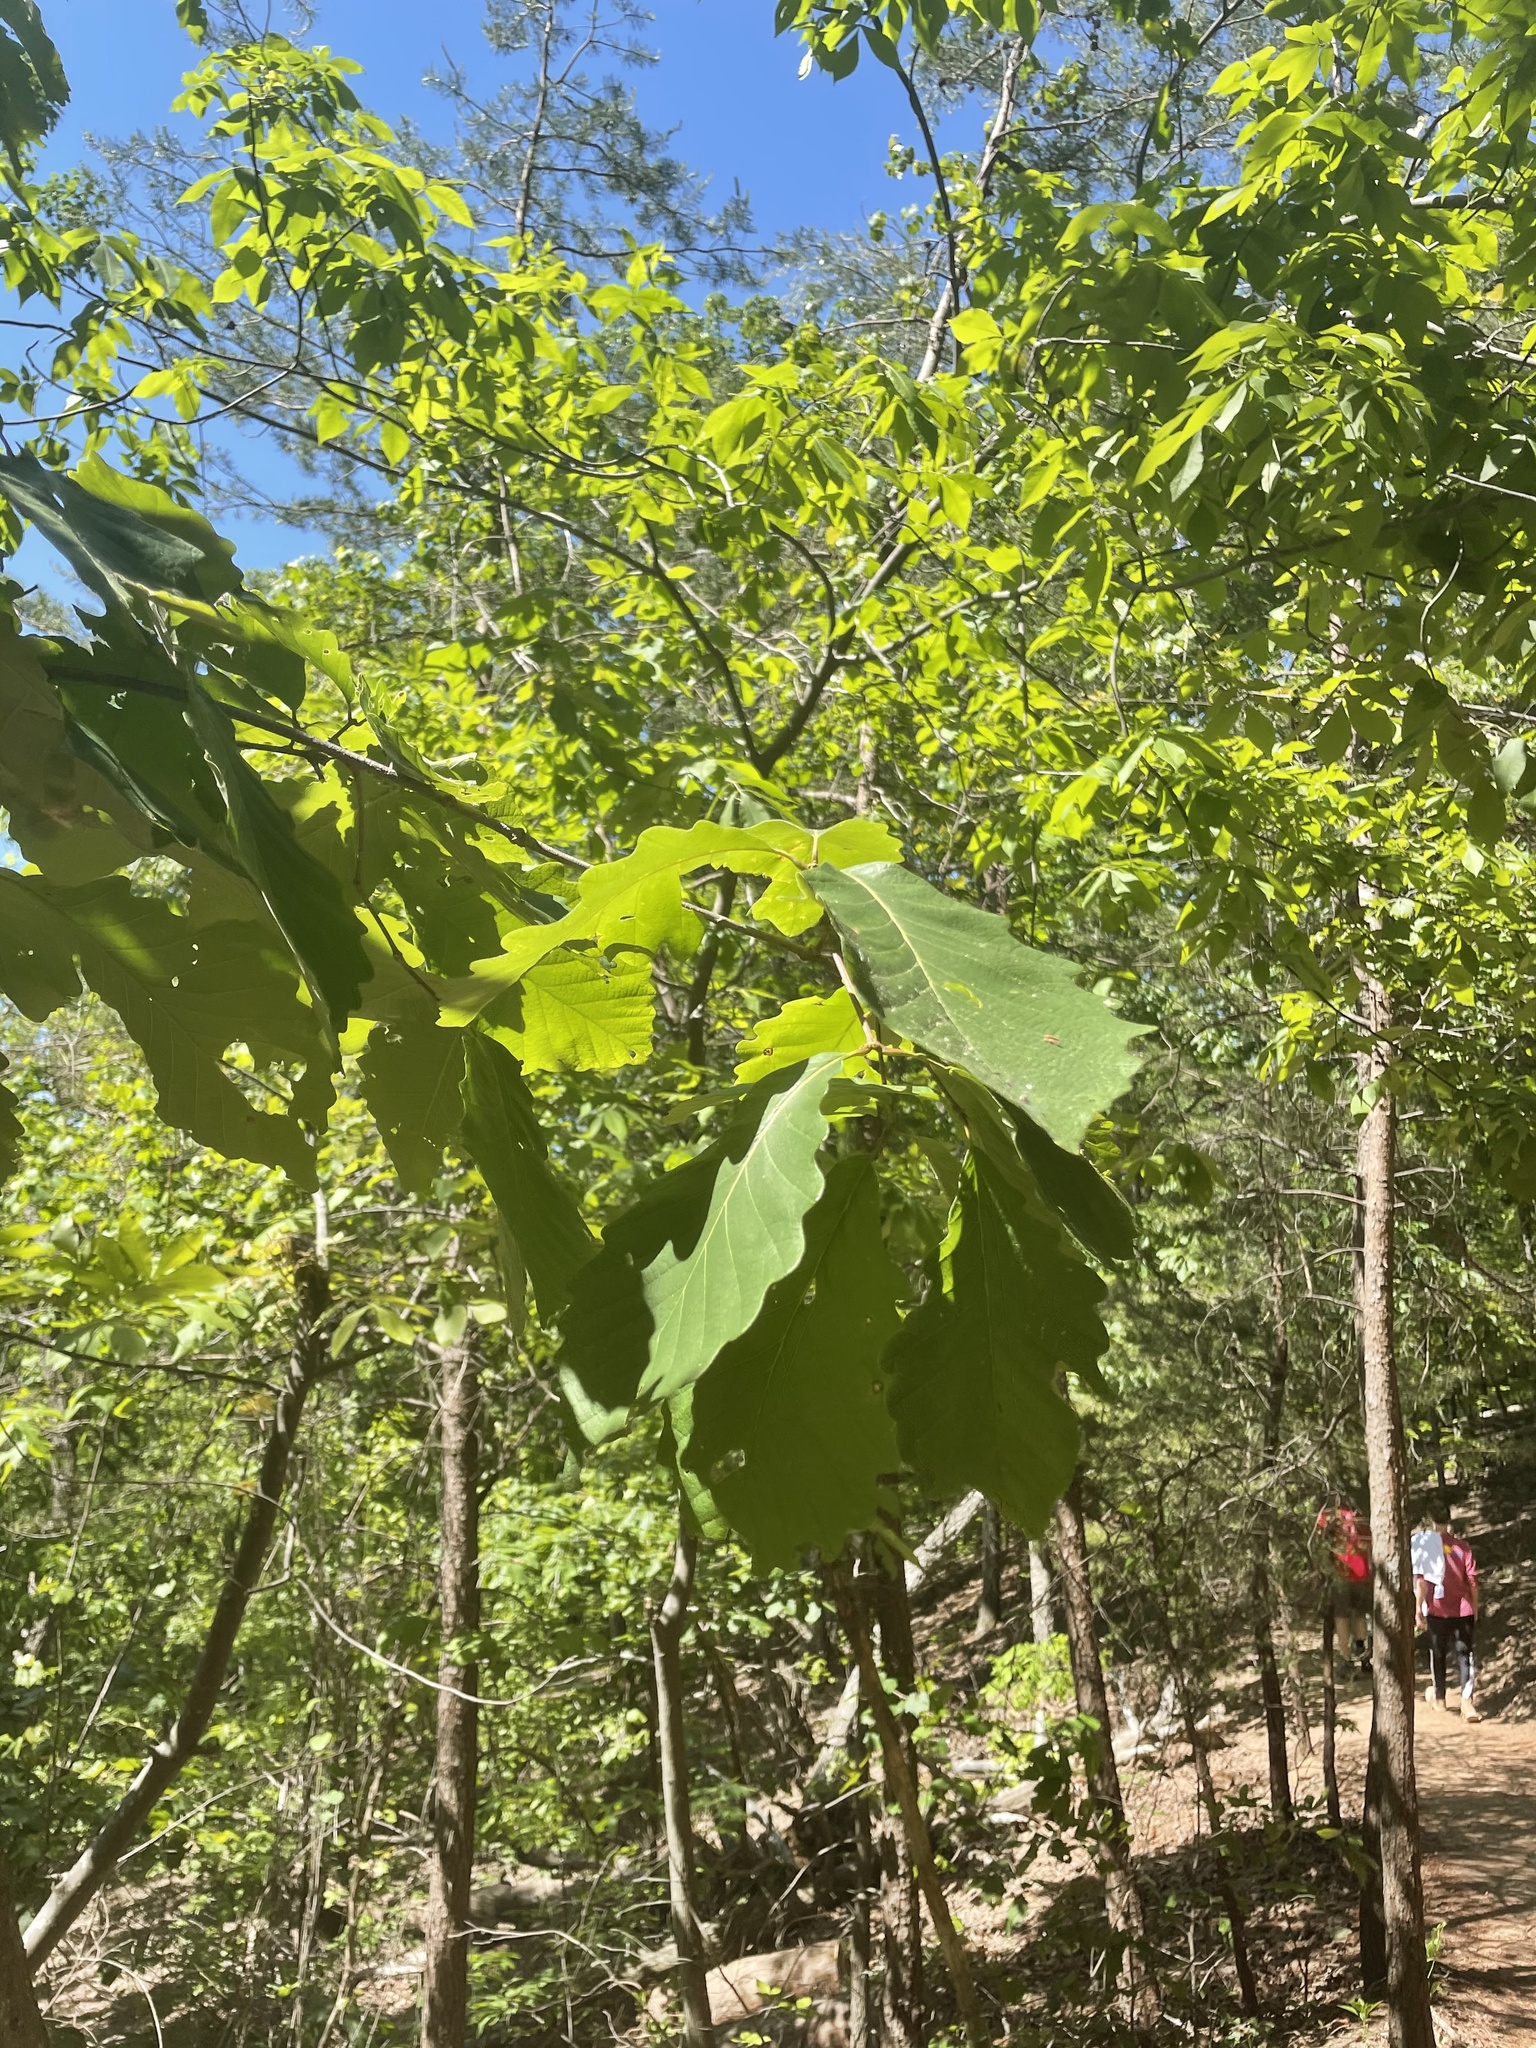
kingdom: Plantae
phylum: Tracheophyta
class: Magnoliopsida
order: Fagales
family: Fagaceae
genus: Quercus
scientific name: Quercus montana
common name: Chestnut oak
